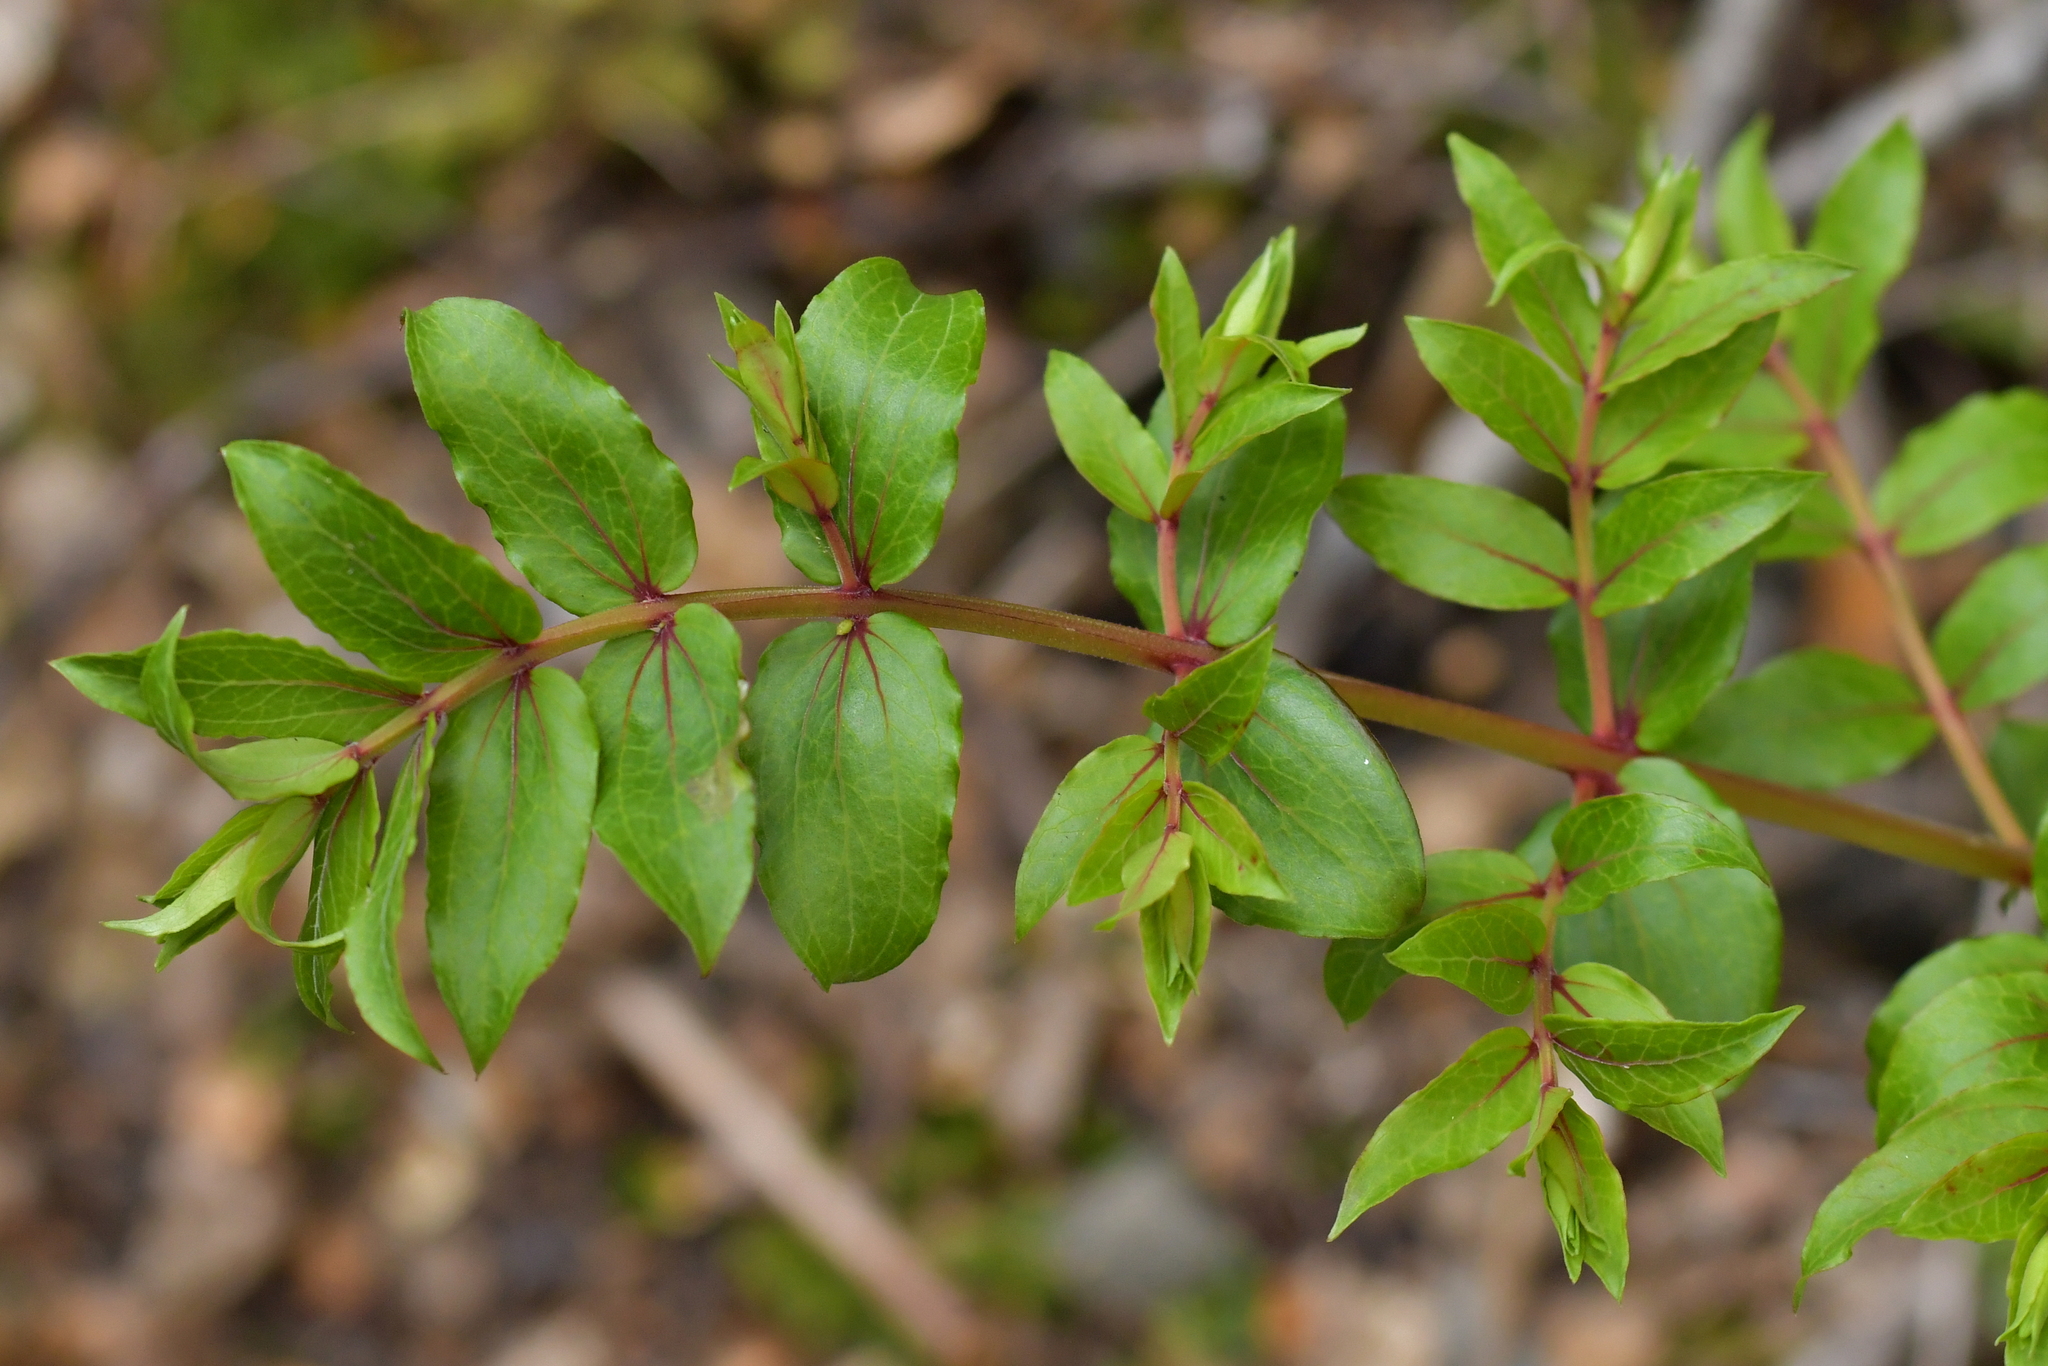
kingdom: Plantae
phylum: Tracheophyta
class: Magnoliopsida
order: Cucurbitales
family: Coriariaceae
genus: Coriaria
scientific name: Coriaria sarmentosa
